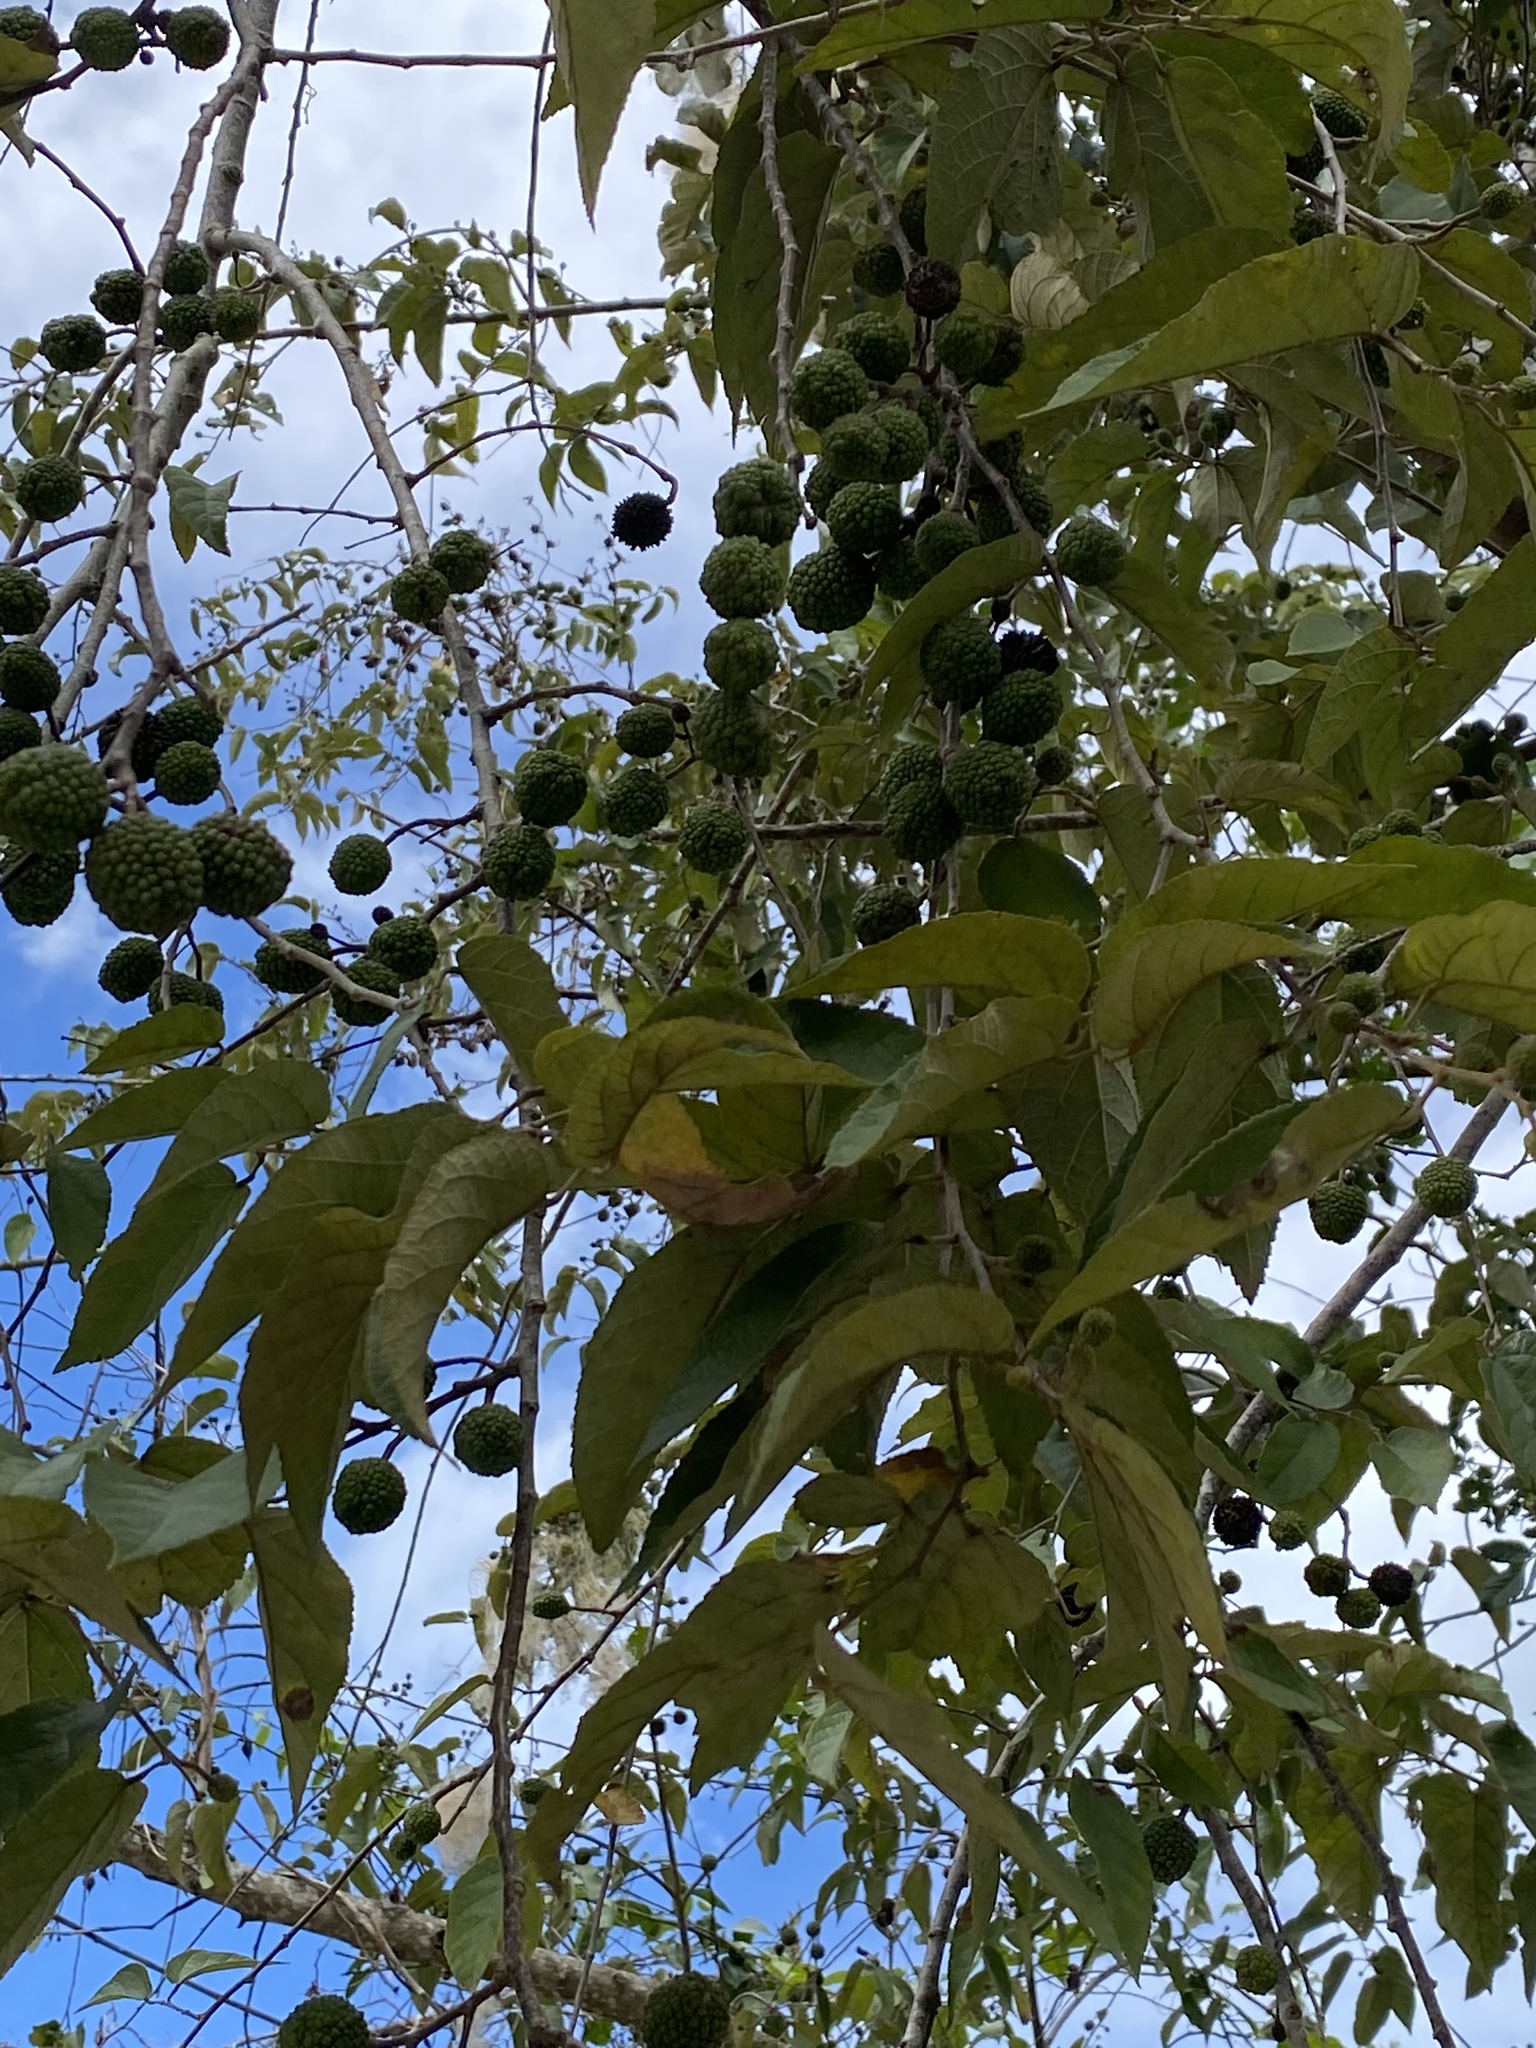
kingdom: Plantae
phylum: Tracheophyta
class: Magnoliopsida
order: Malvales
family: Malvaceae
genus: Guazuma
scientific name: Guazuma ulmifolia
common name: Bastard-cedar
